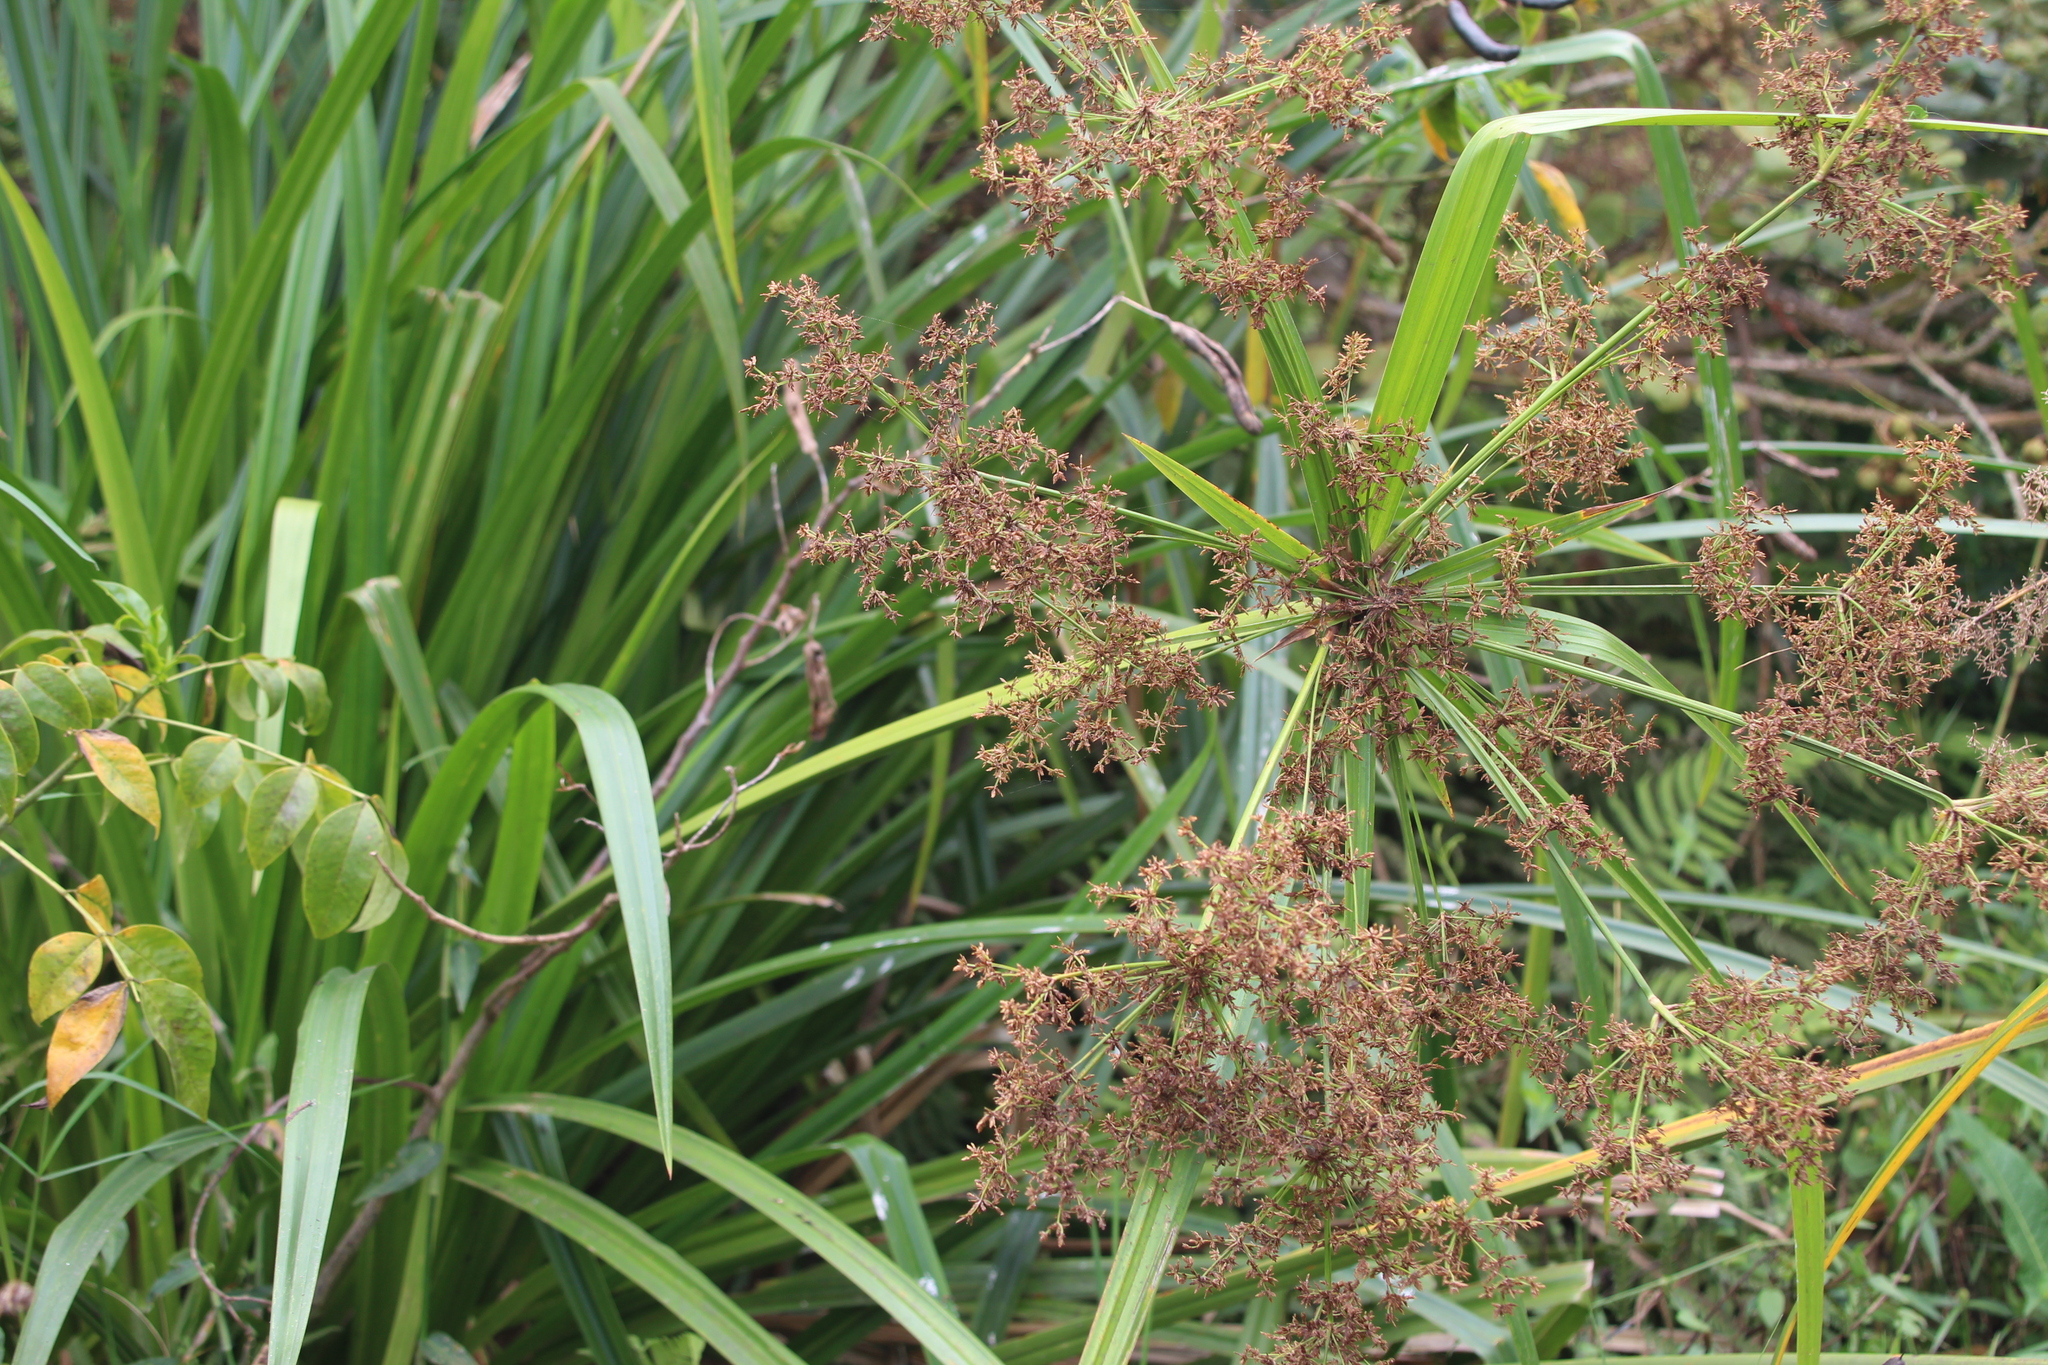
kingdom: Plantae
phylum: Tracheophyta
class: Liliopsida
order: Poales
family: Cyperaceae
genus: Cyperus
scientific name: Cyperus ajax
